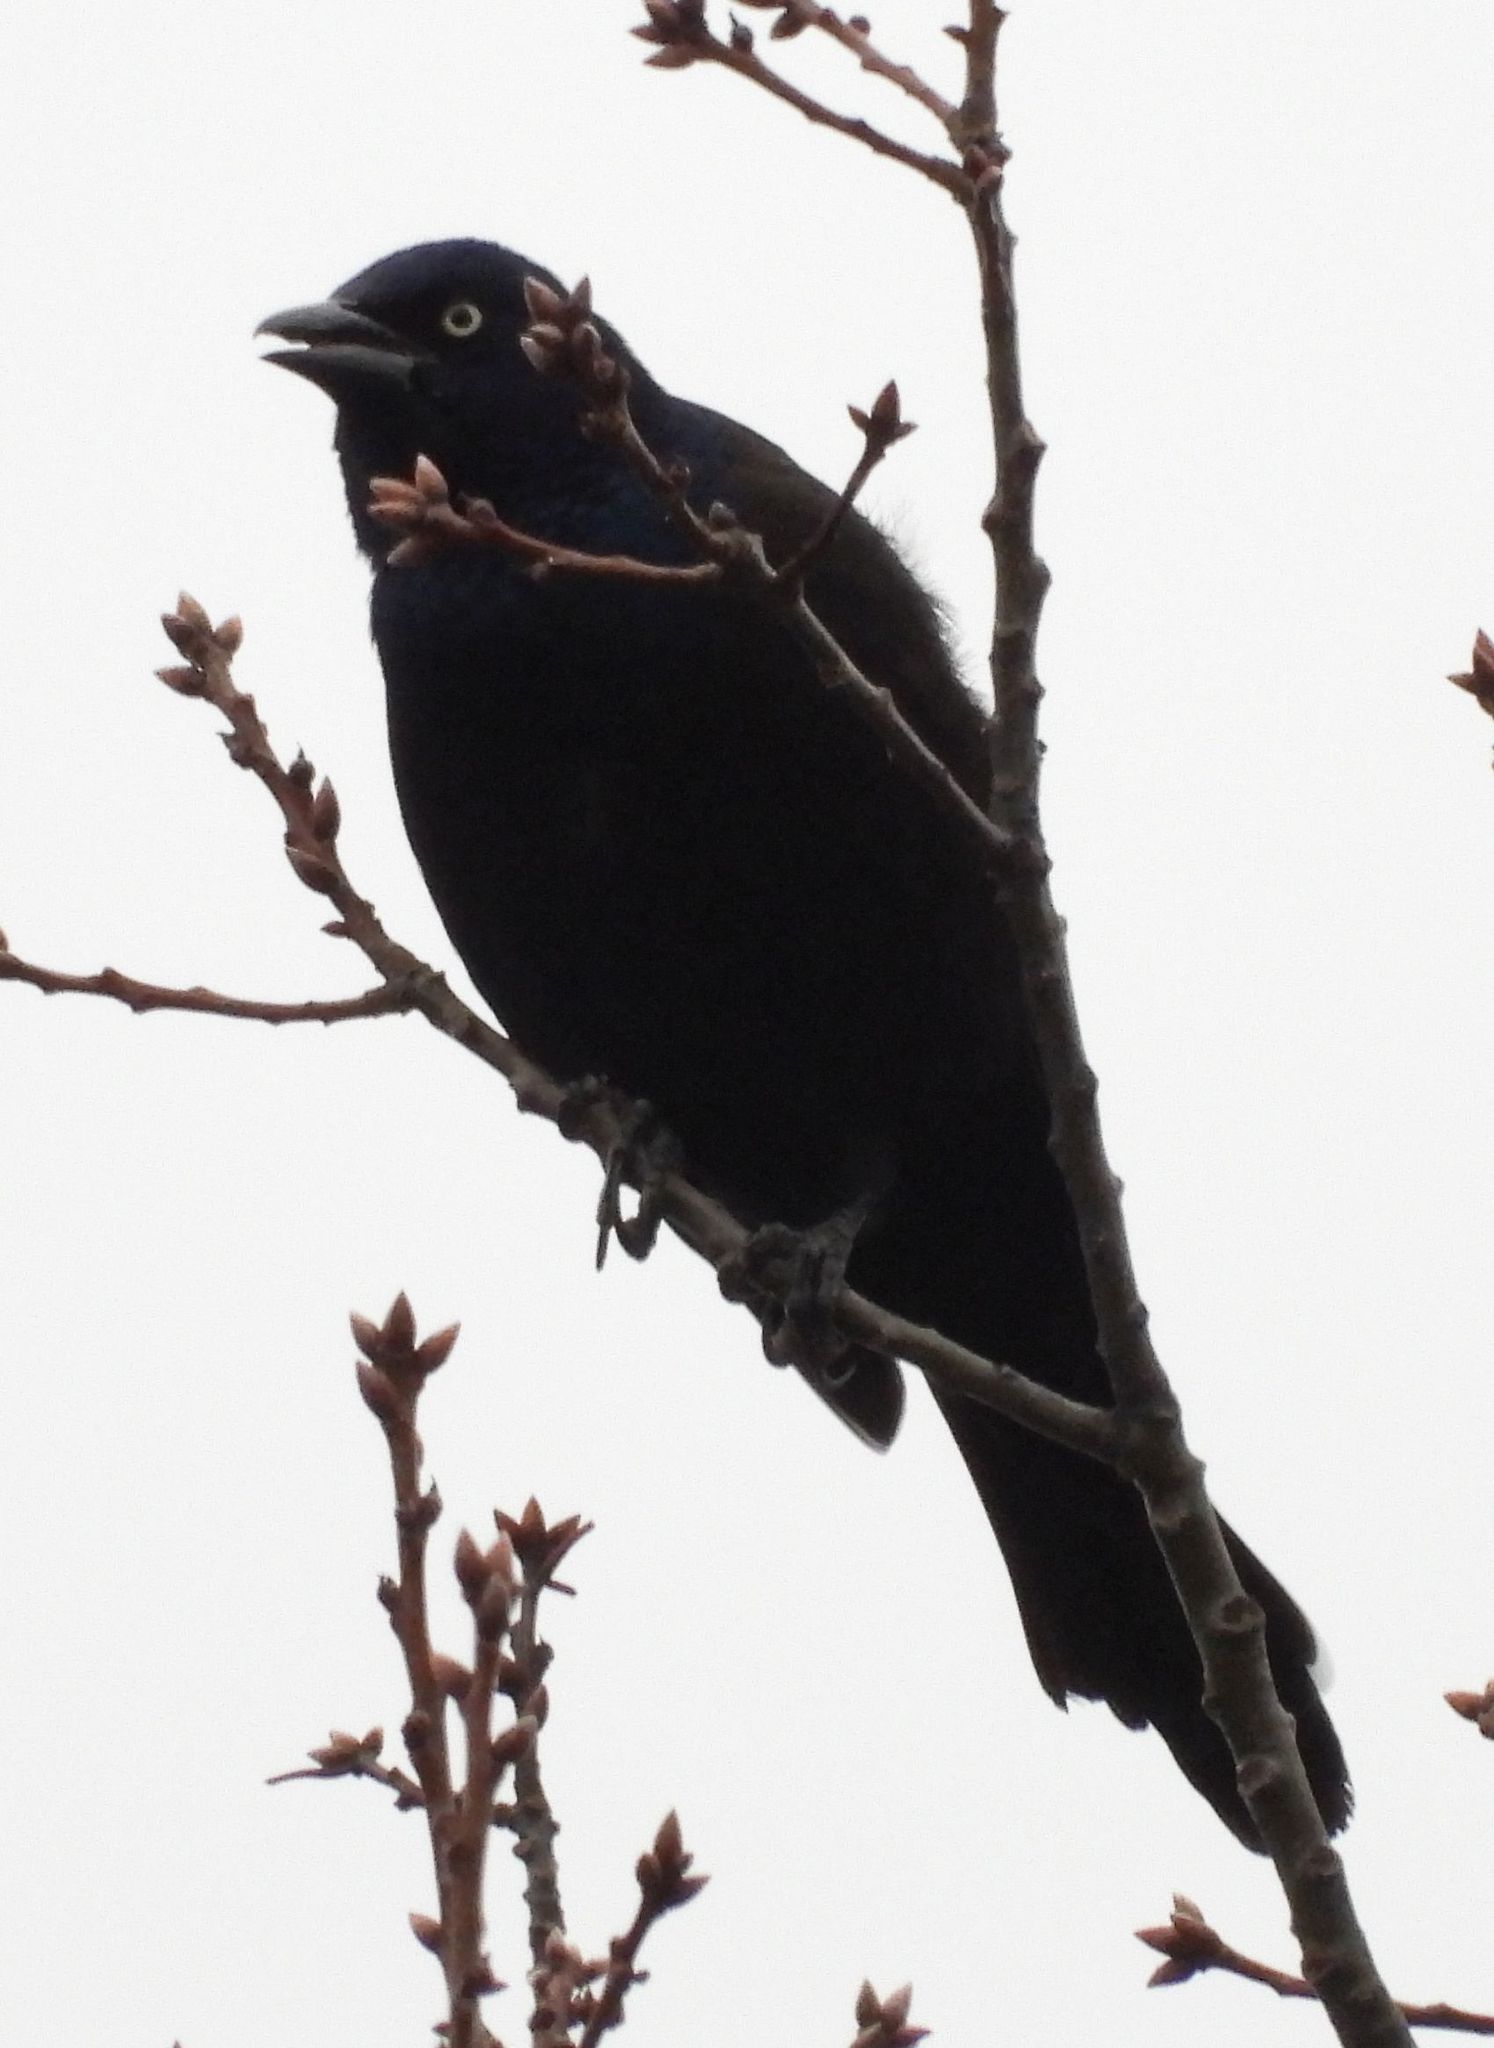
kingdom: Animalia
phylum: Chordata
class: Aves
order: Passeriformes
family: Icteridae
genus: Quiscalus
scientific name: Quiscalus quiscula
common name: Common grackle
